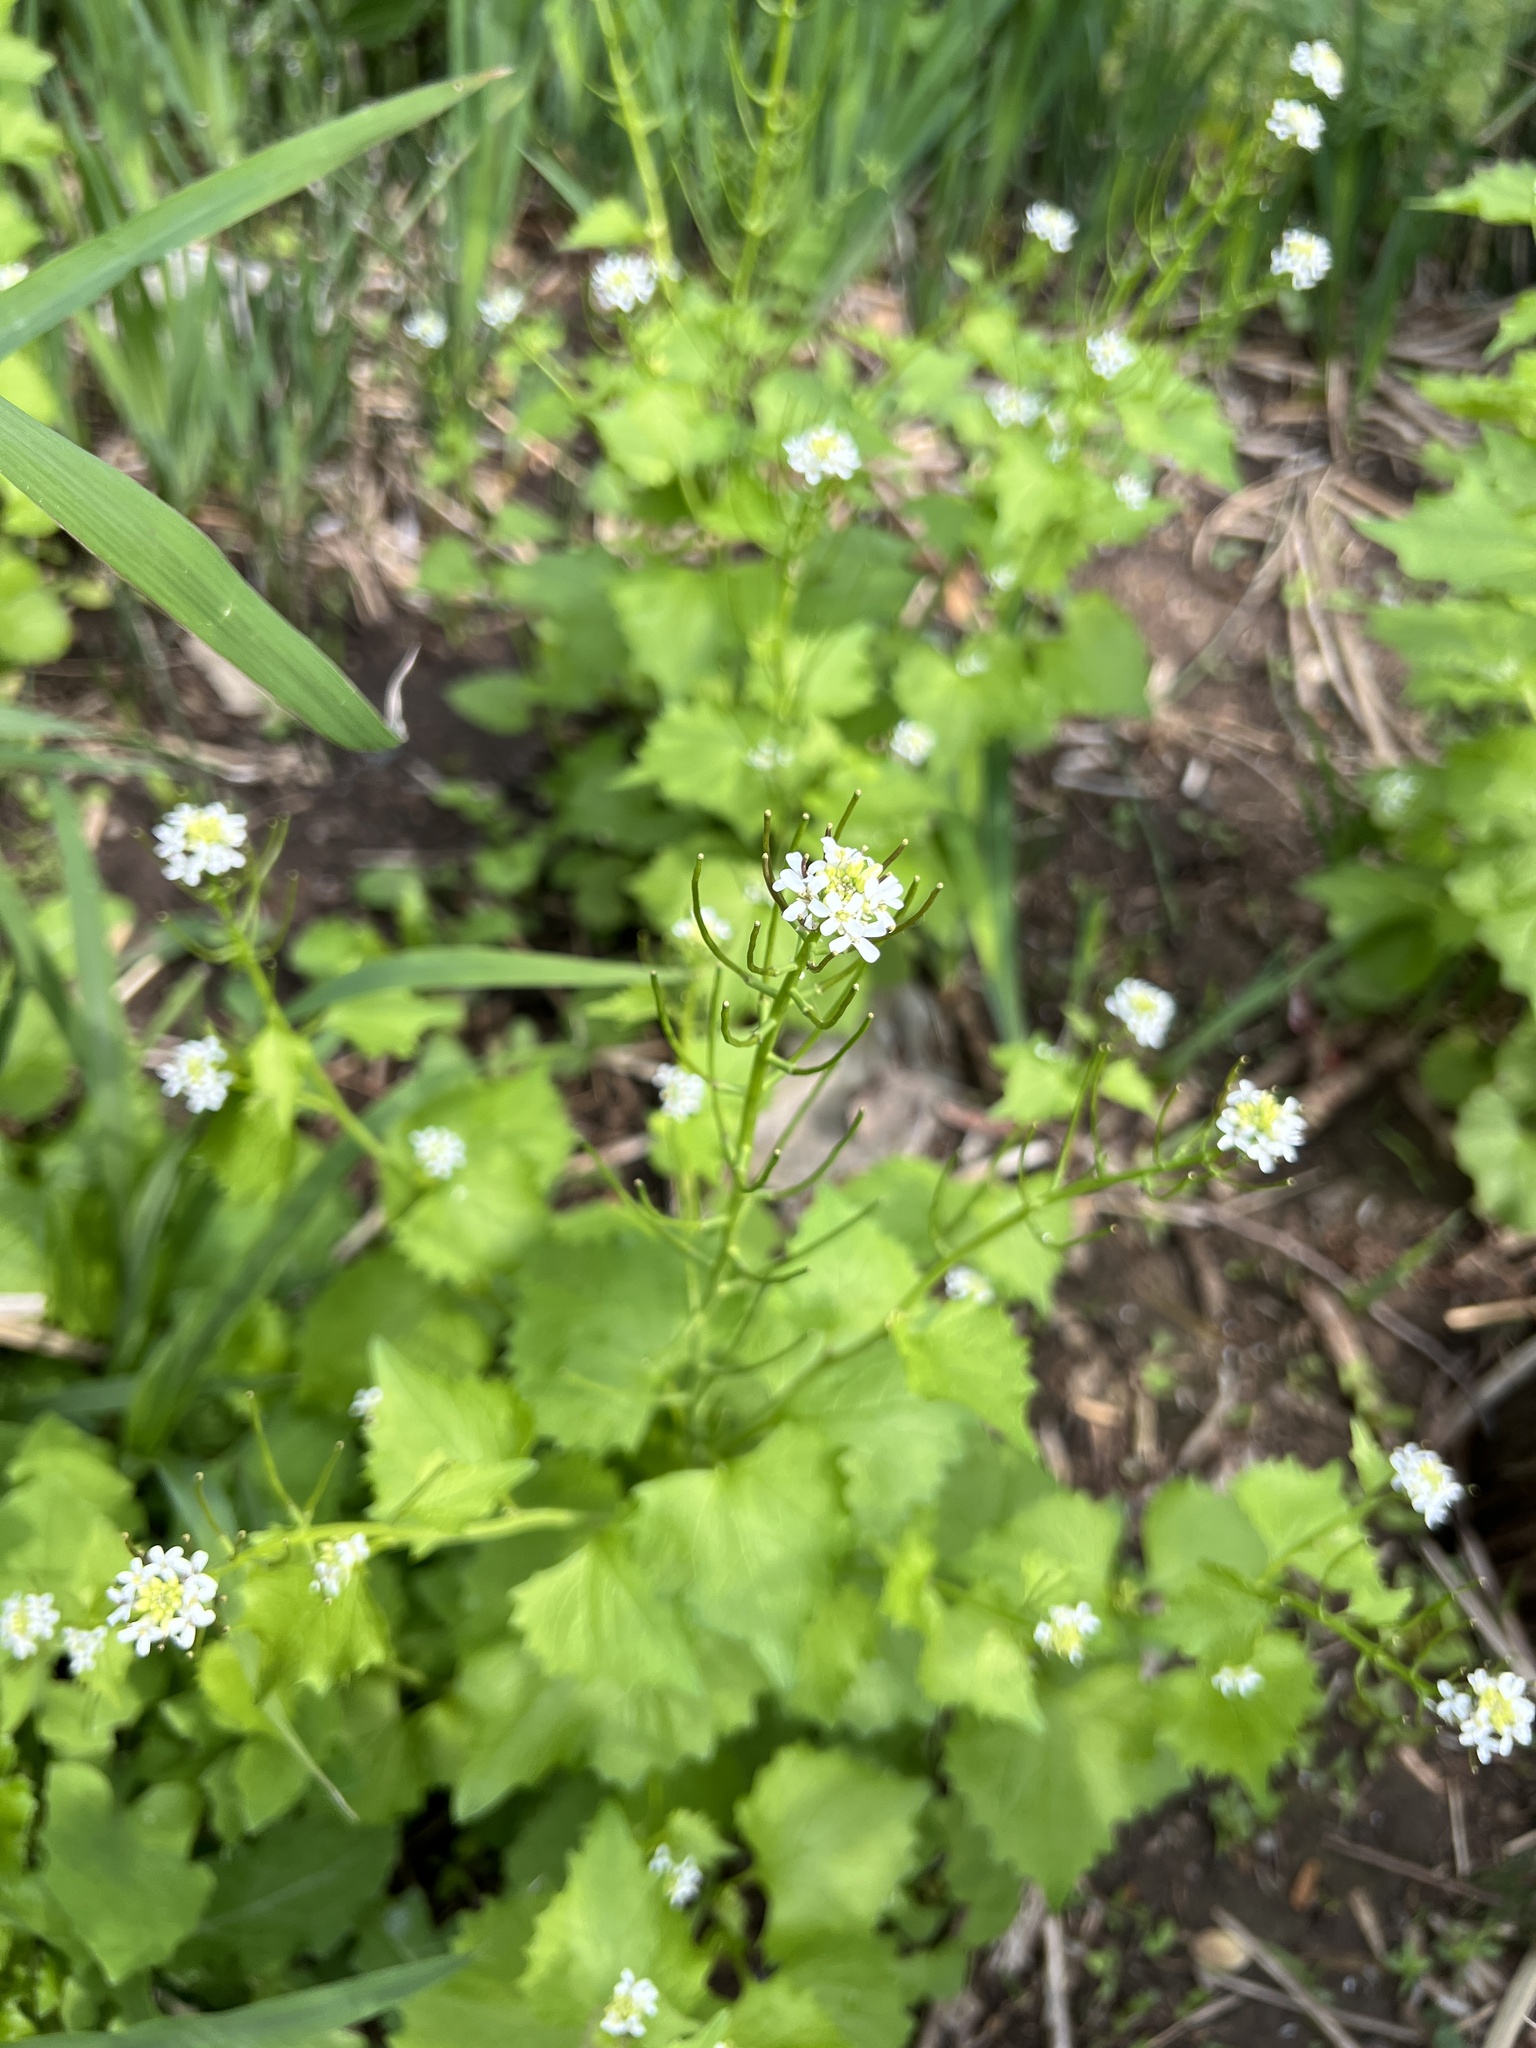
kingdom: Plantae
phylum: Tracheophyta
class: Magnoliopsida
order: Brassicales
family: Brassicaceae
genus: Alliaria
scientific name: Alliaria petiolata
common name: Garlic mustard
